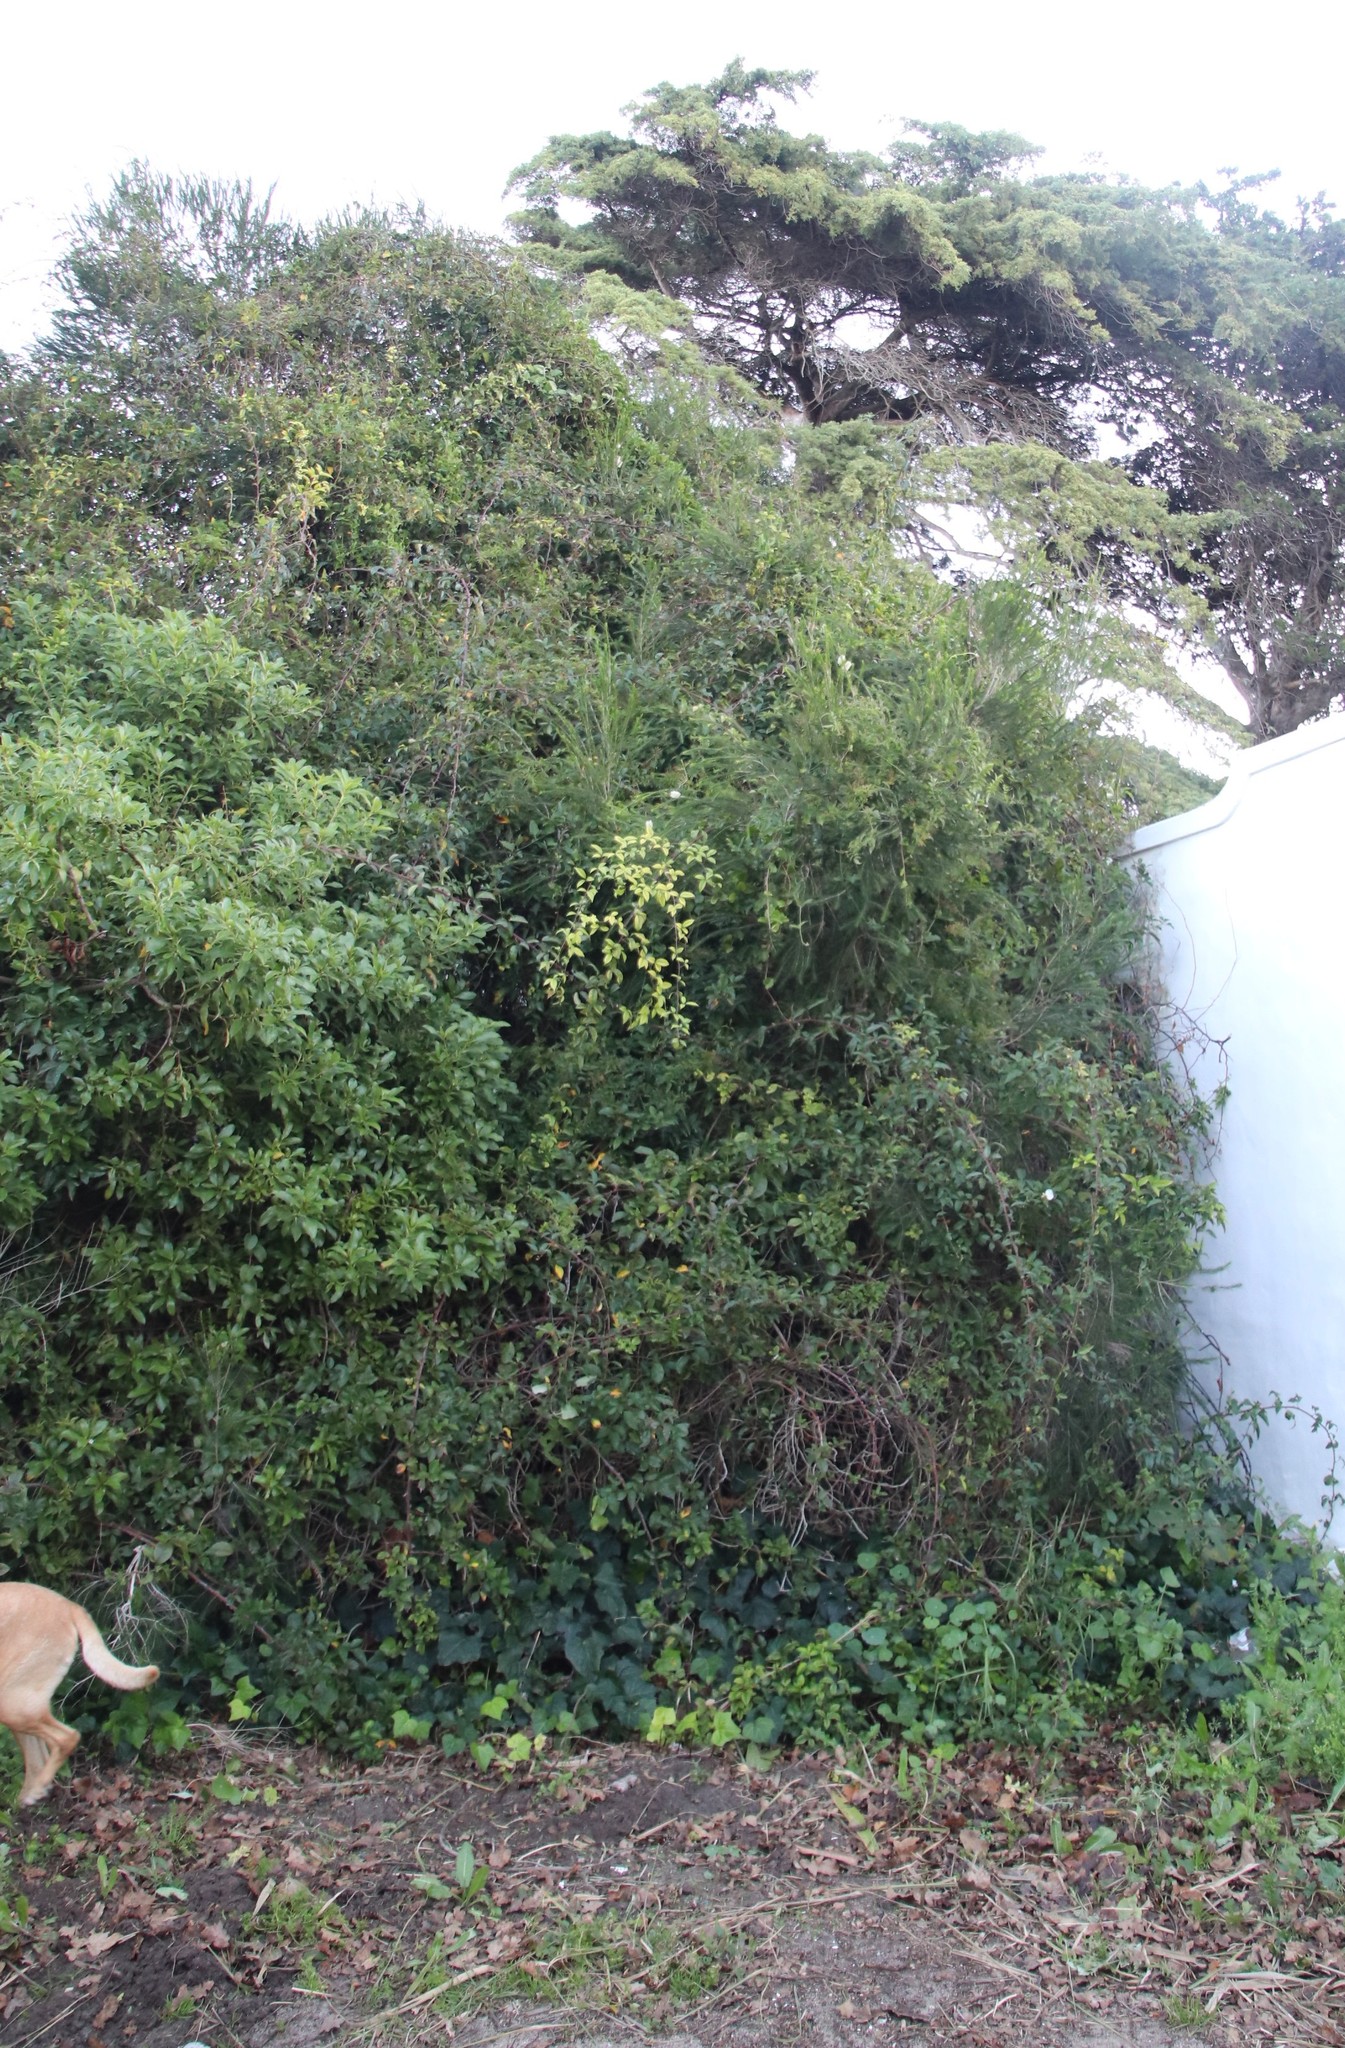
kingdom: Plantae
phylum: Tracheophyta
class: Magnoliopsida
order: Myrtales
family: Myrtaceae
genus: Melaleuca
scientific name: Melaleuca armillaris
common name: Bracelet honey myrtle
